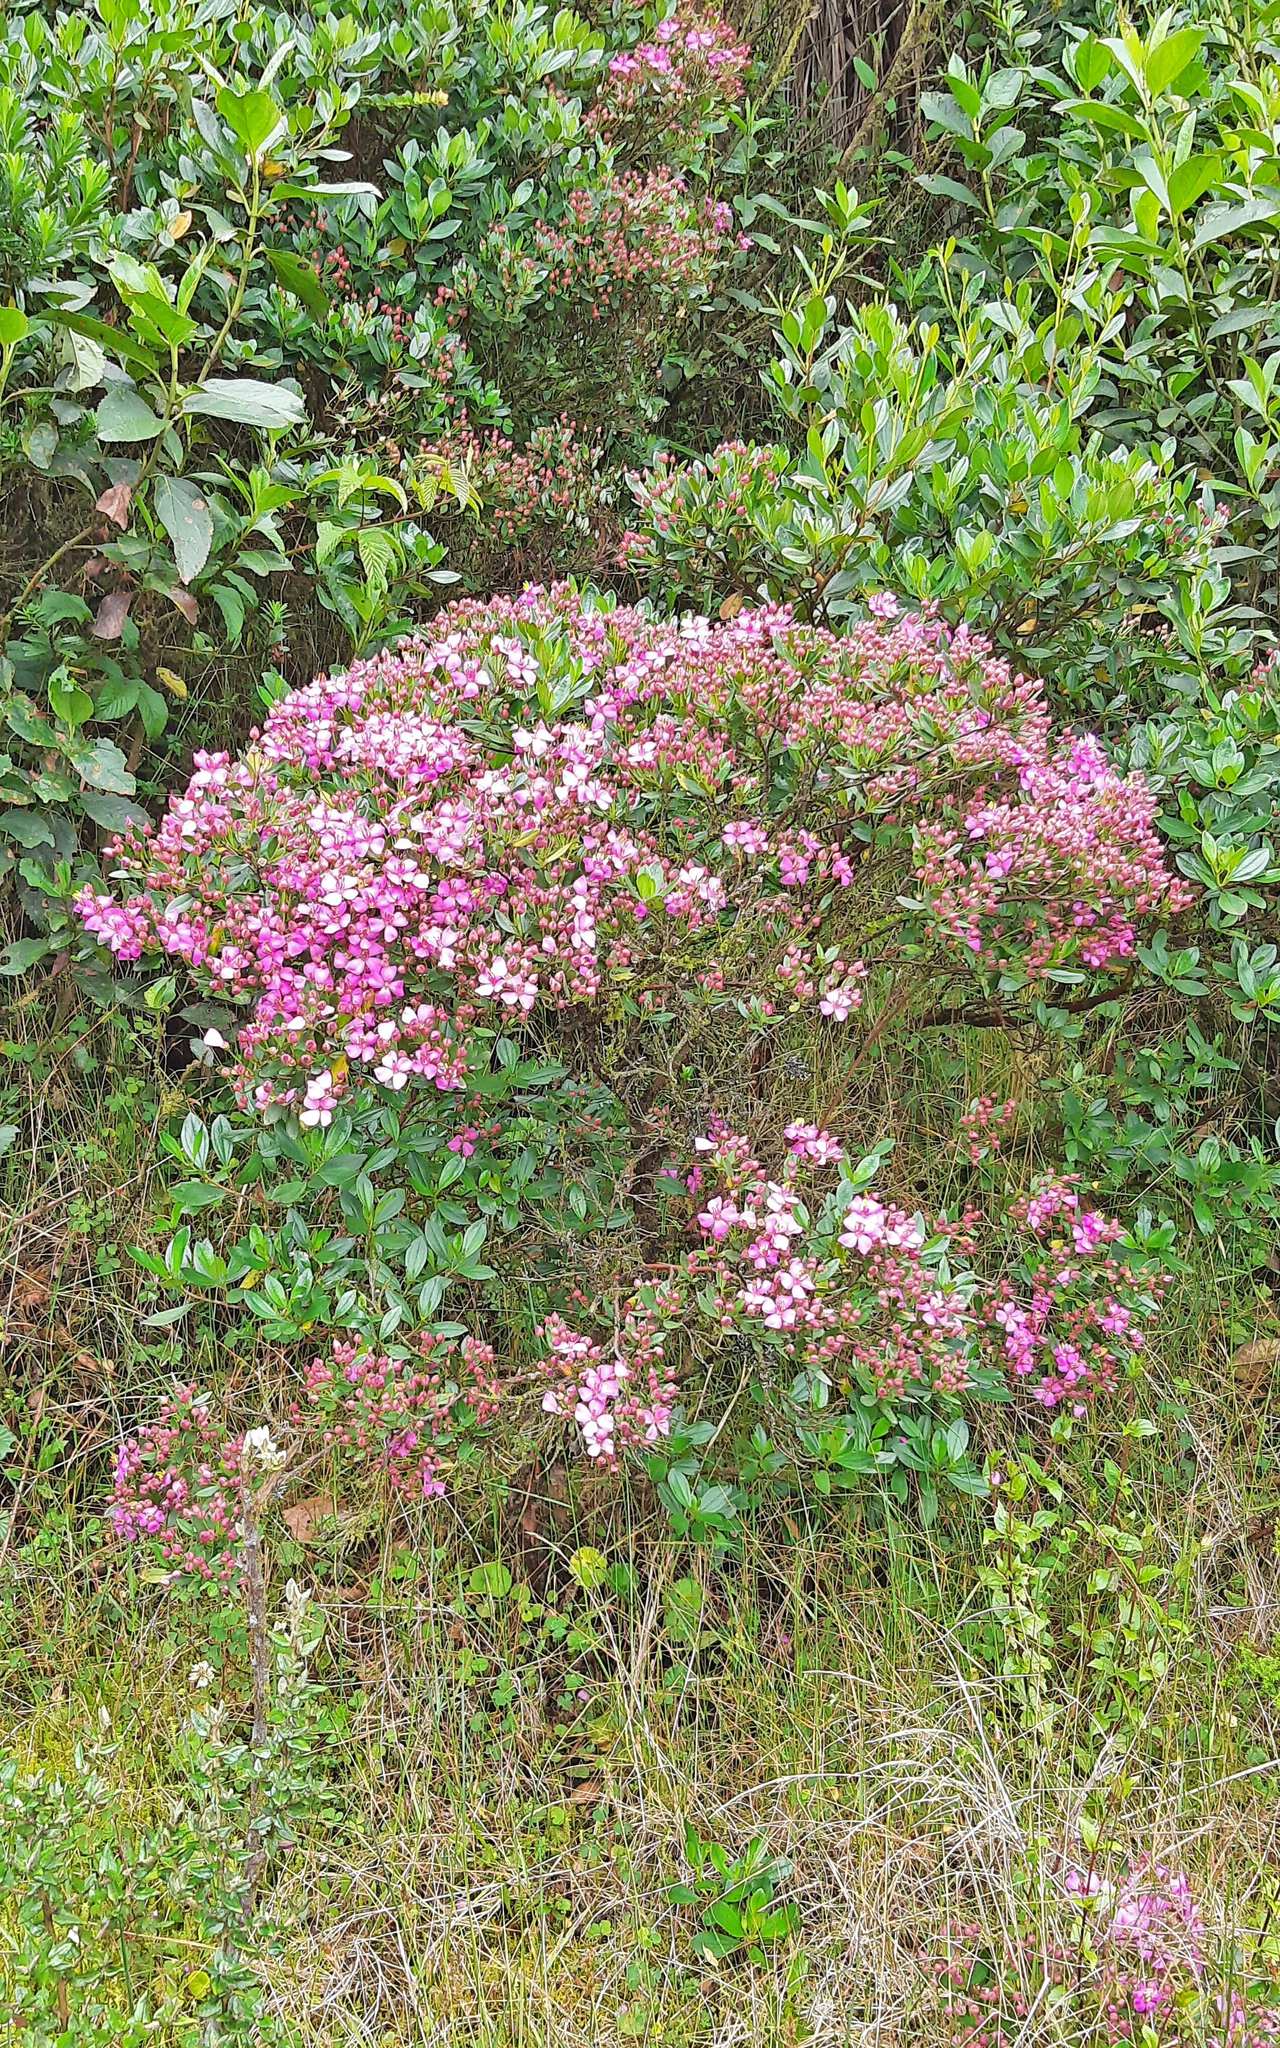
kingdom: Plantae
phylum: Tracheophyta
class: Magnoliopsida
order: Myrtales
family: Melastomataceae
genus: Bucquetia
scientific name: Bucquetia glutinosa
